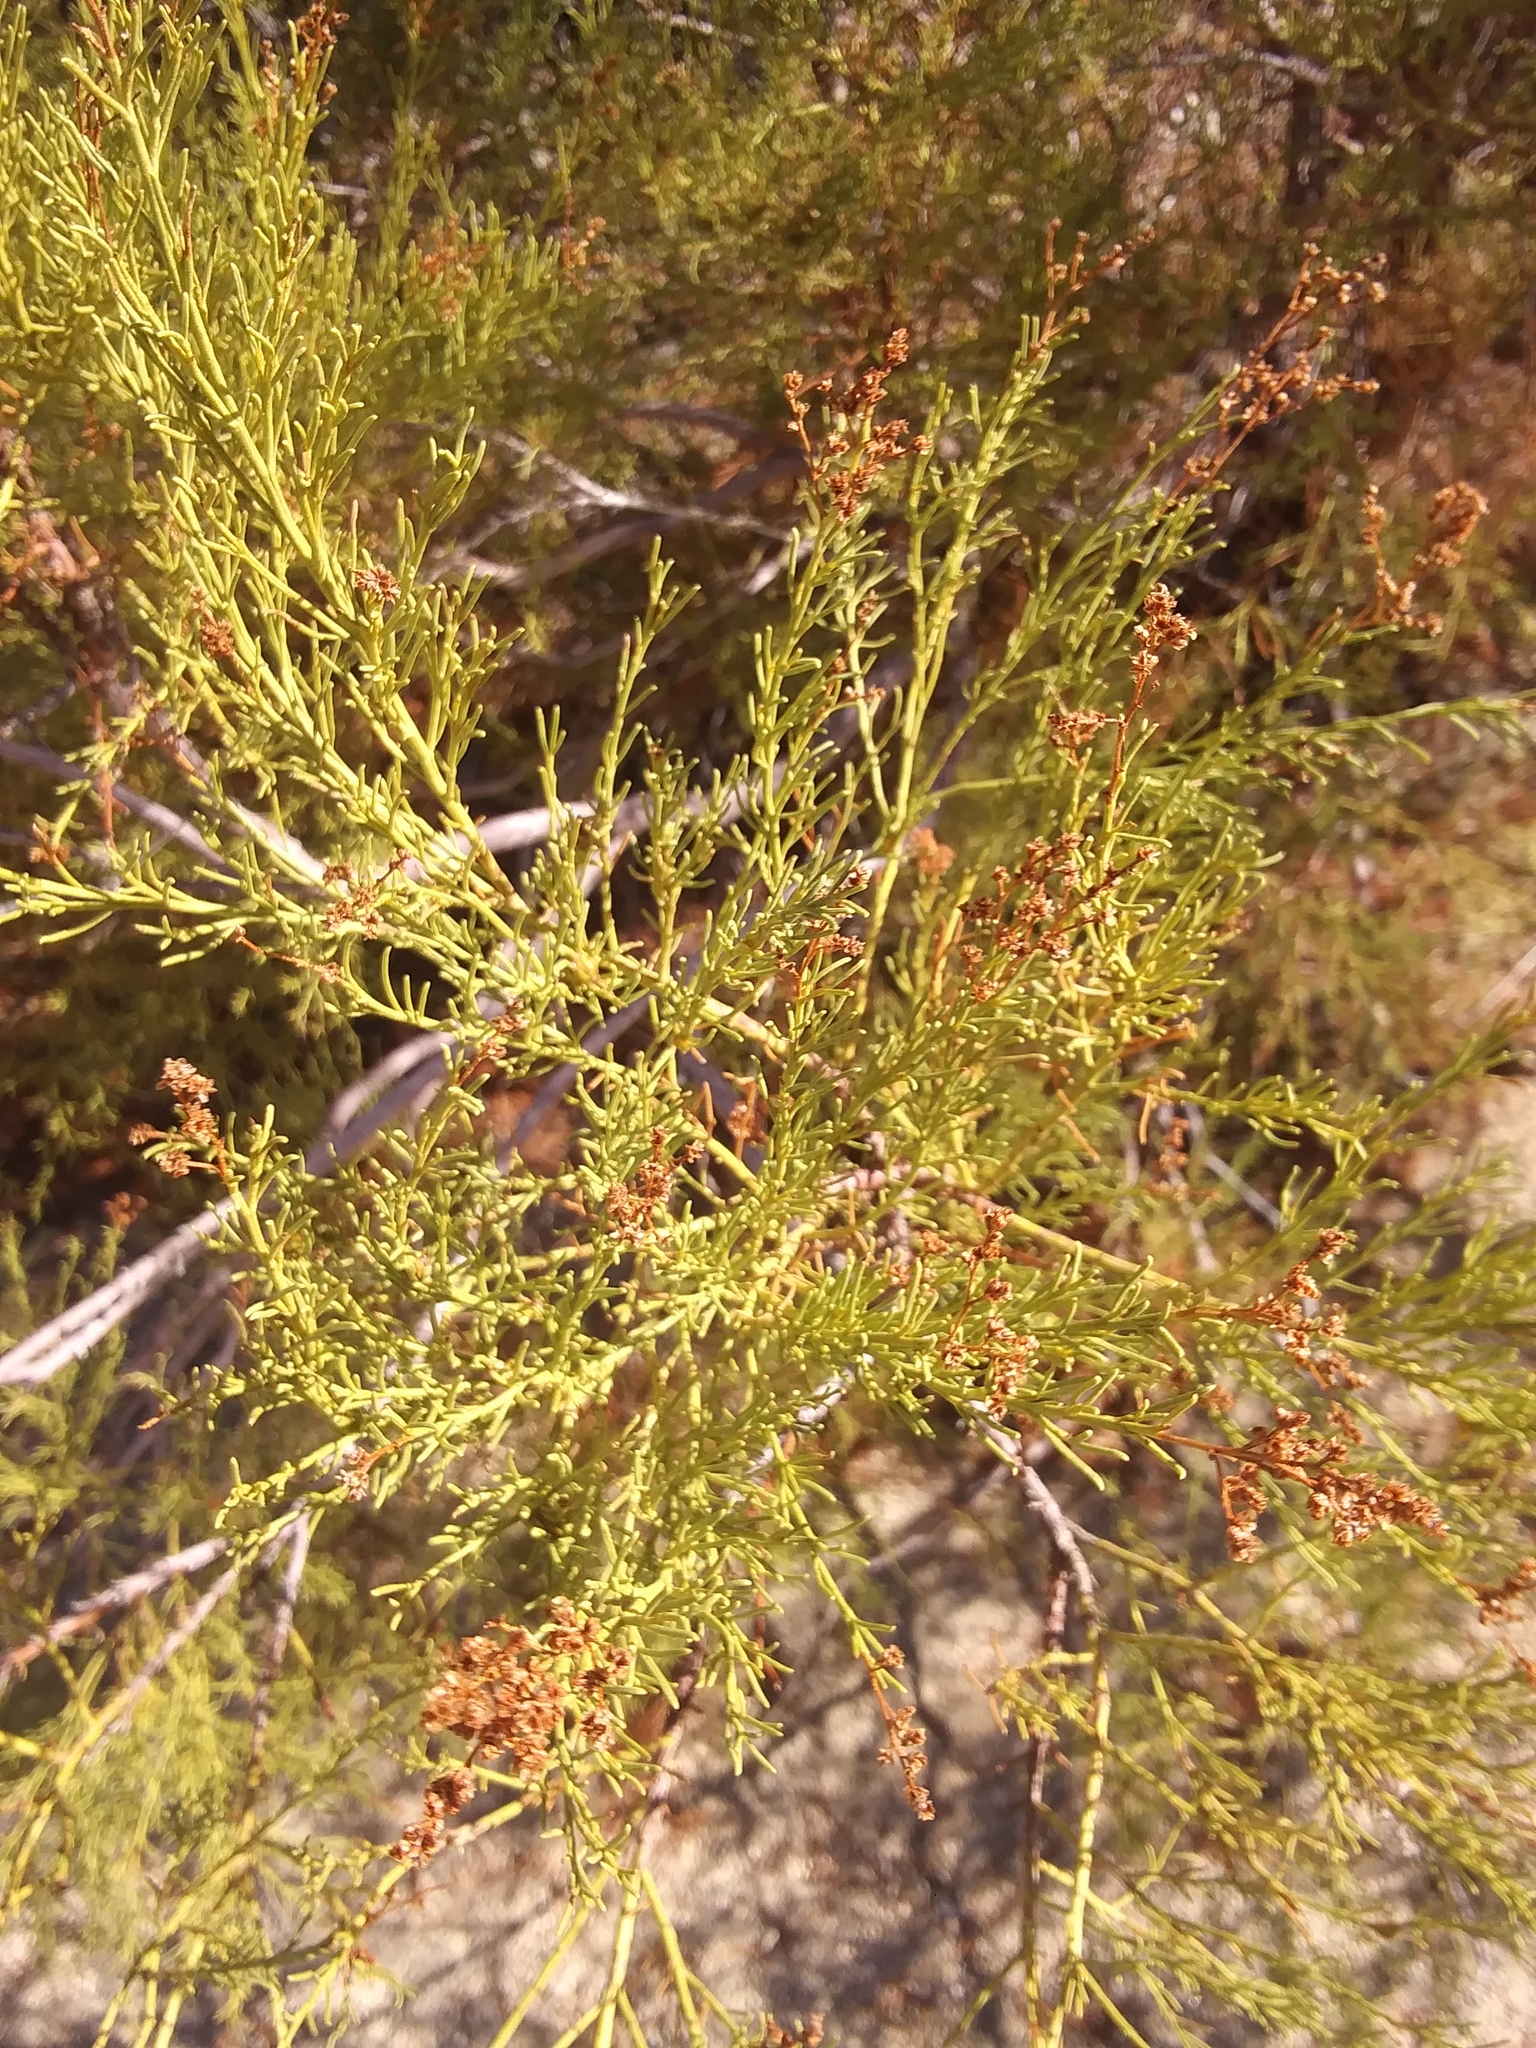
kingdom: Plantae
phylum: Tracheophyta
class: Magnoliopsida
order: Rosales
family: Rosaceae
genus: Adenostoma
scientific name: Adenostoma sparsifolium
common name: Red shank
